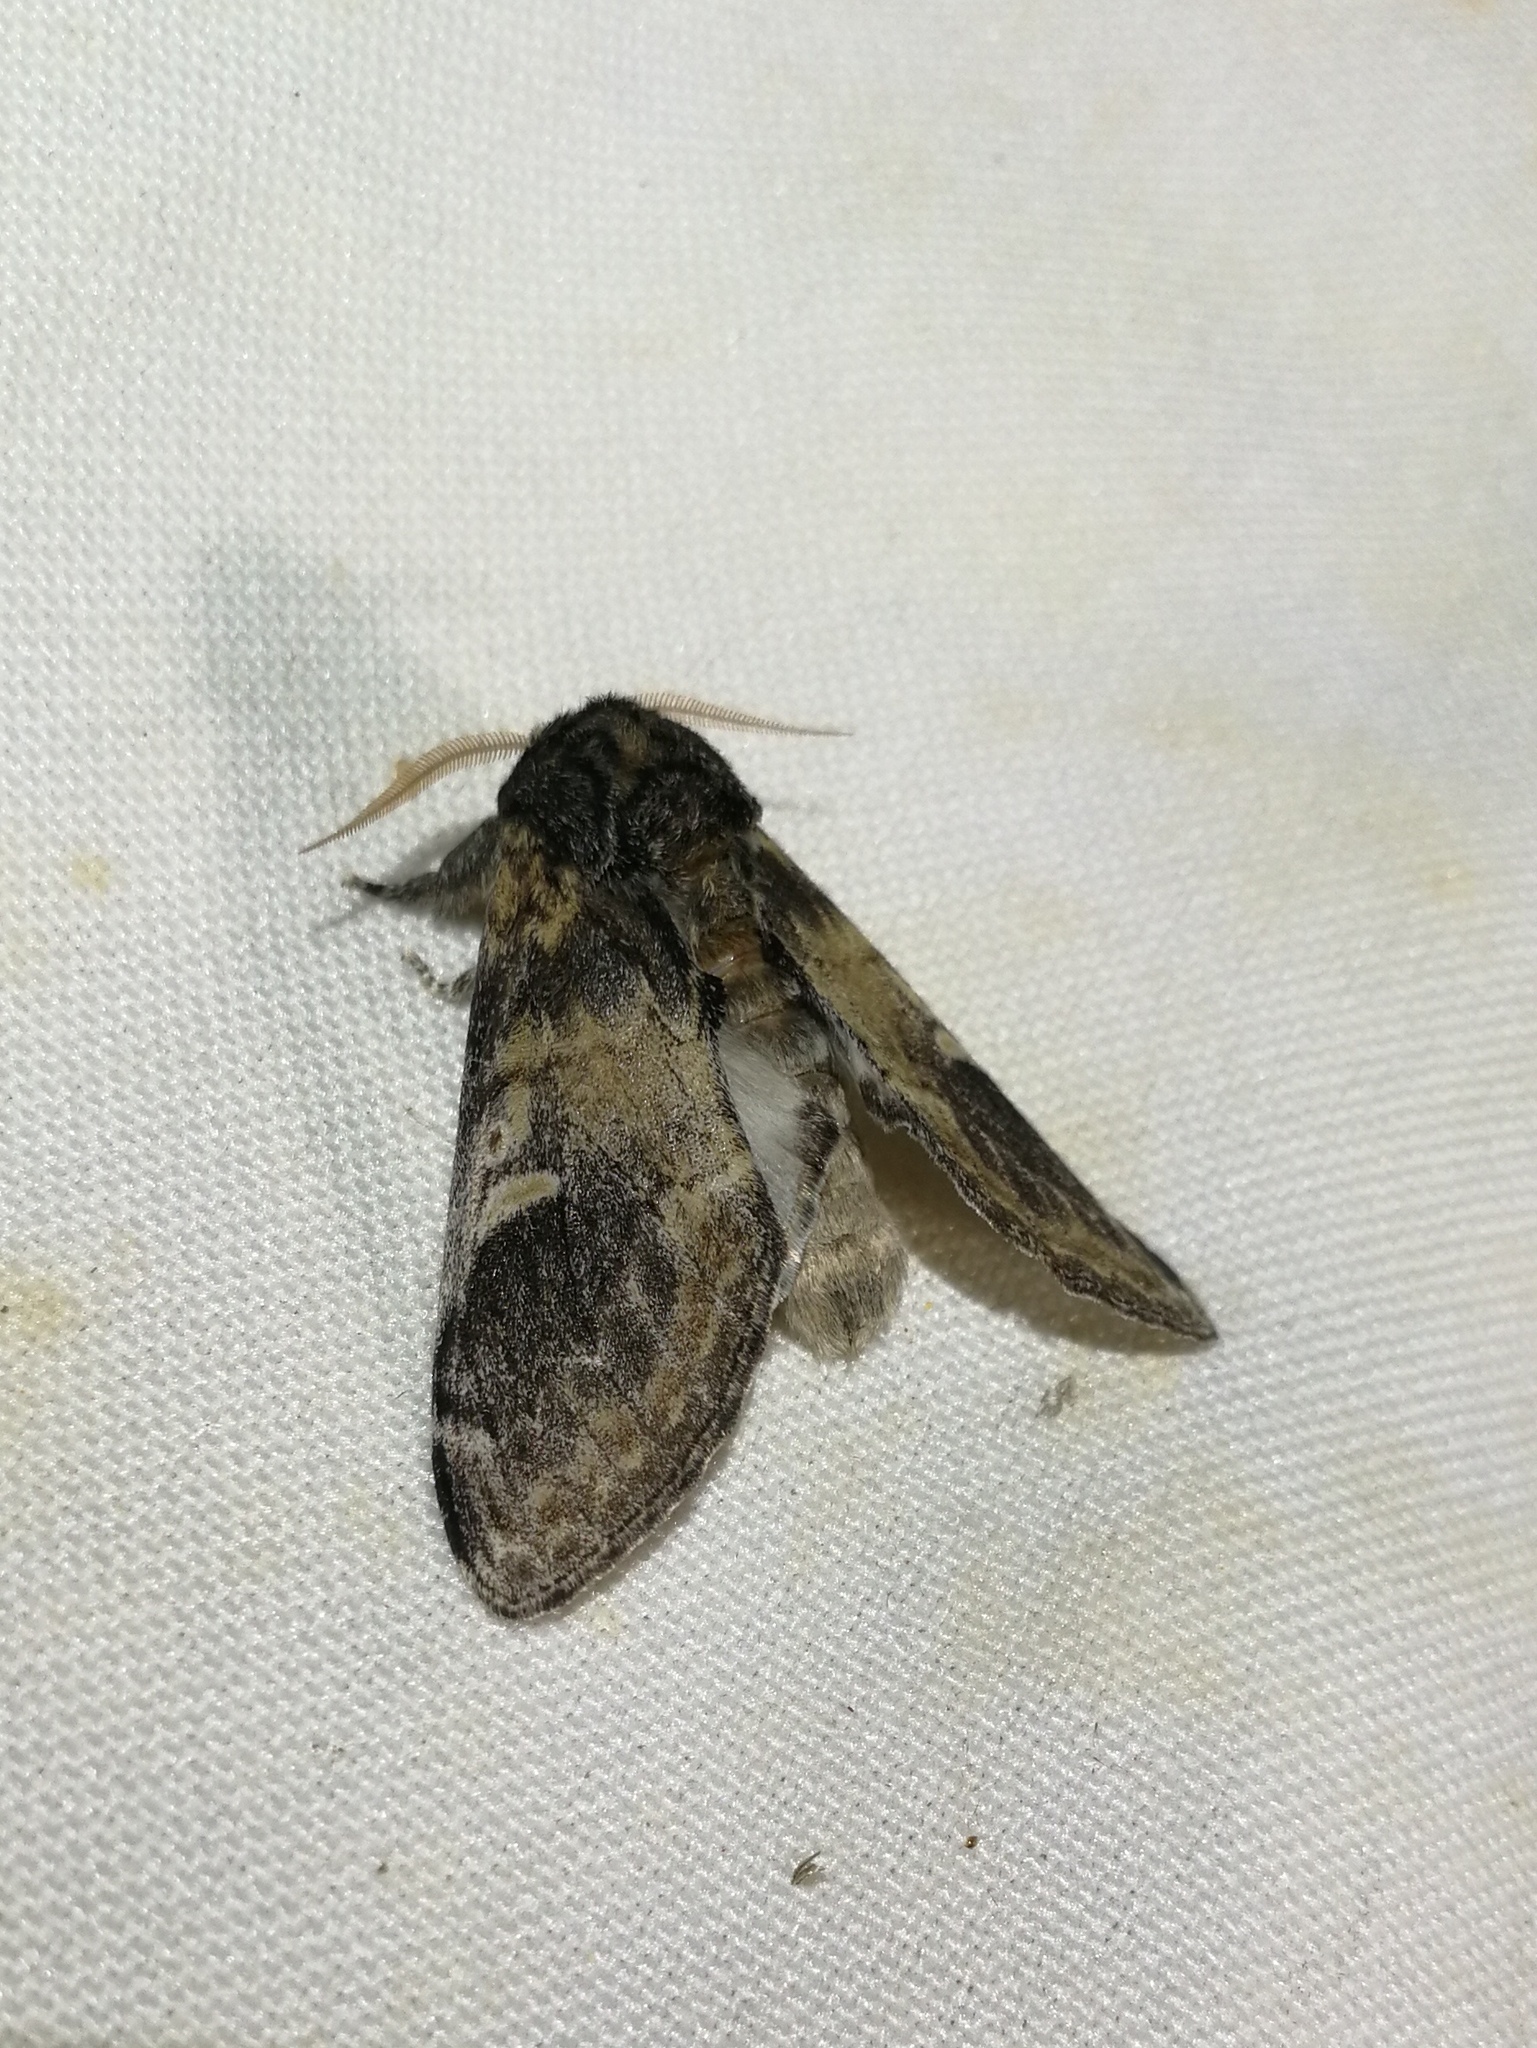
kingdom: Animalia
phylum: Arthropoda
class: Insecta
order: Lepidoptera
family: Notodontidae
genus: Notodonta
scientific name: Notodonta tritophus
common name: Three-humped prominent
